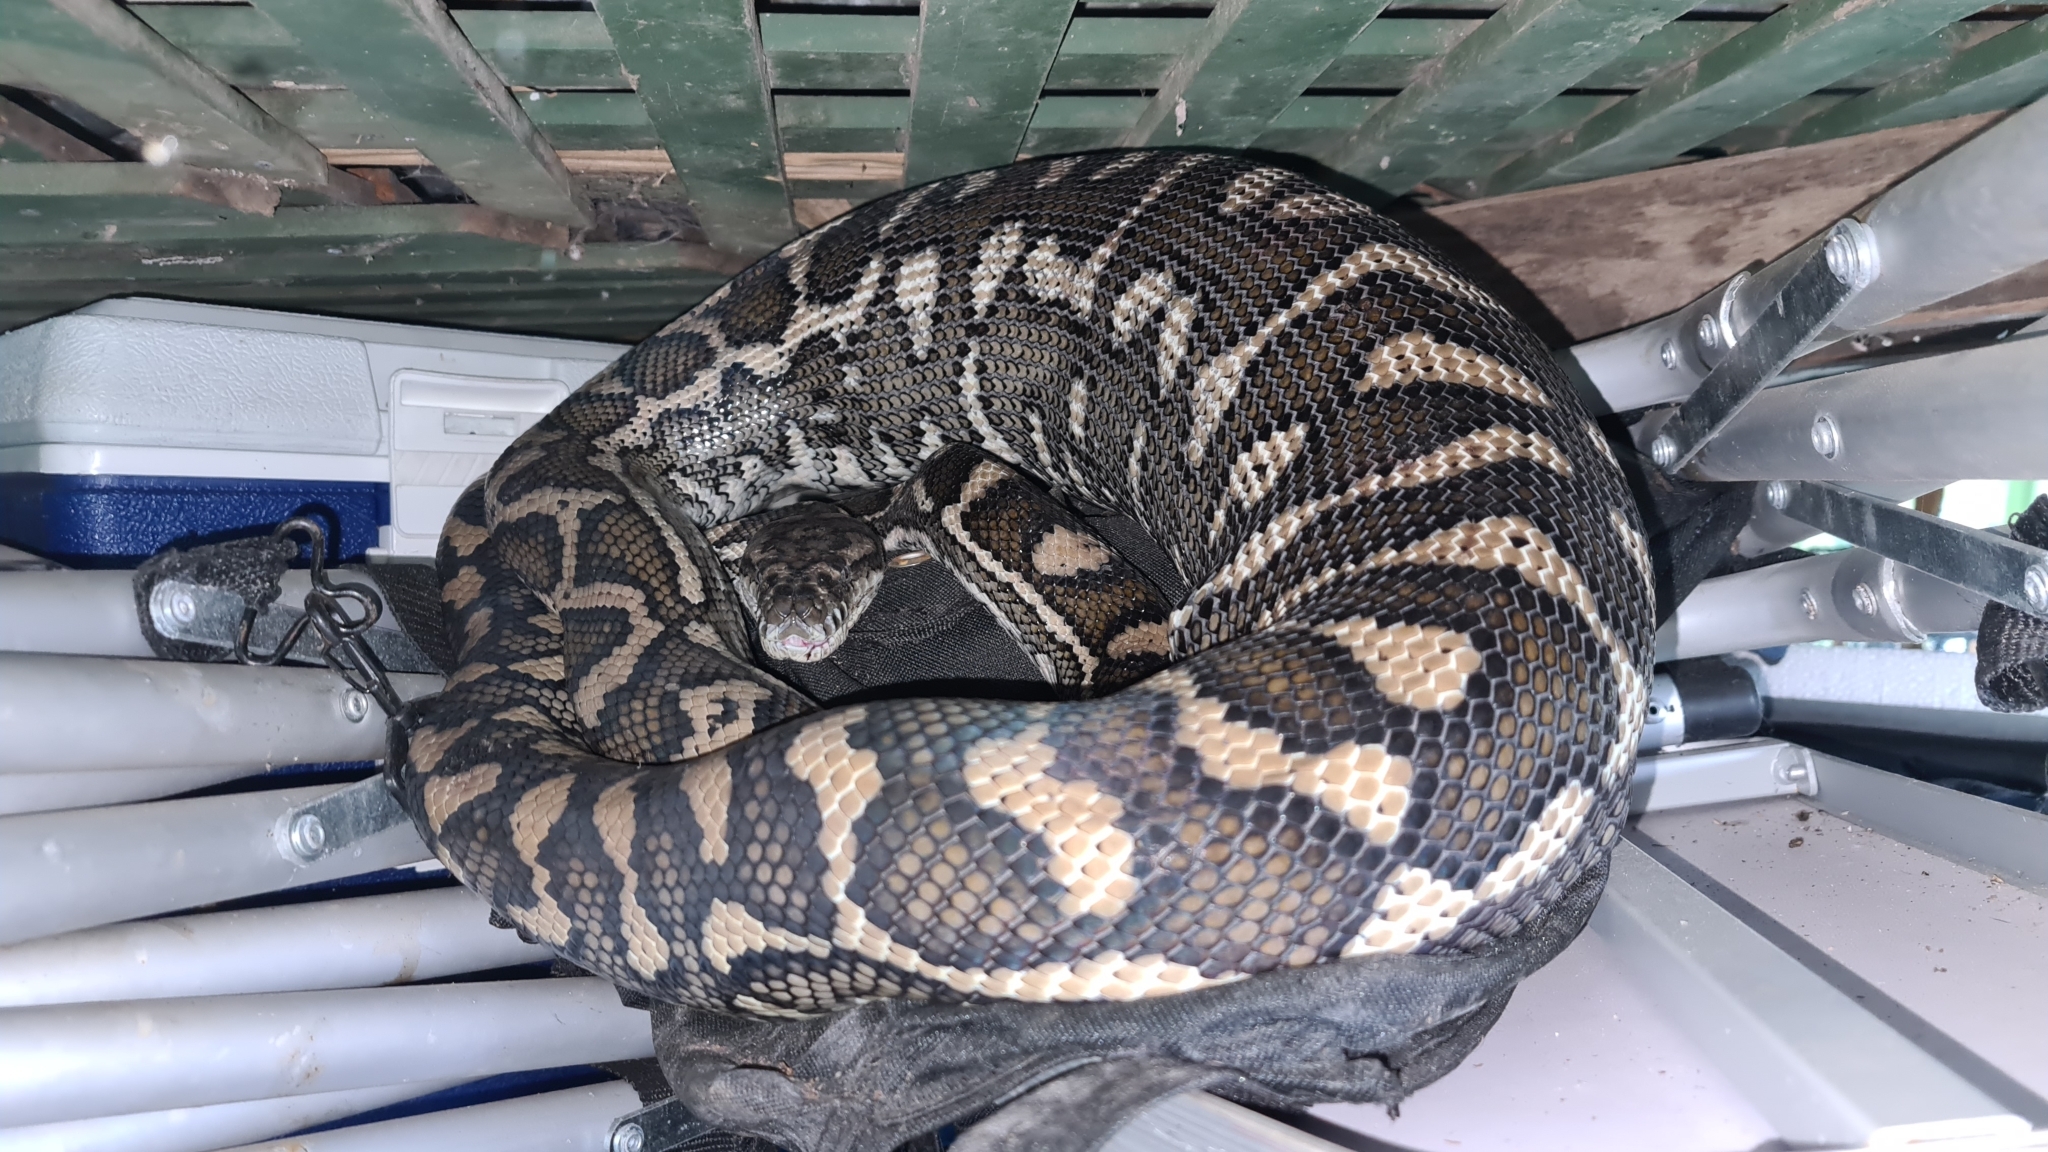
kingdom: Animalia
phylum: Chordata
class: Squamata
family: Pythonidae
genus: Morelia
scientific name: Morelia spilota
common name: Carpet python
